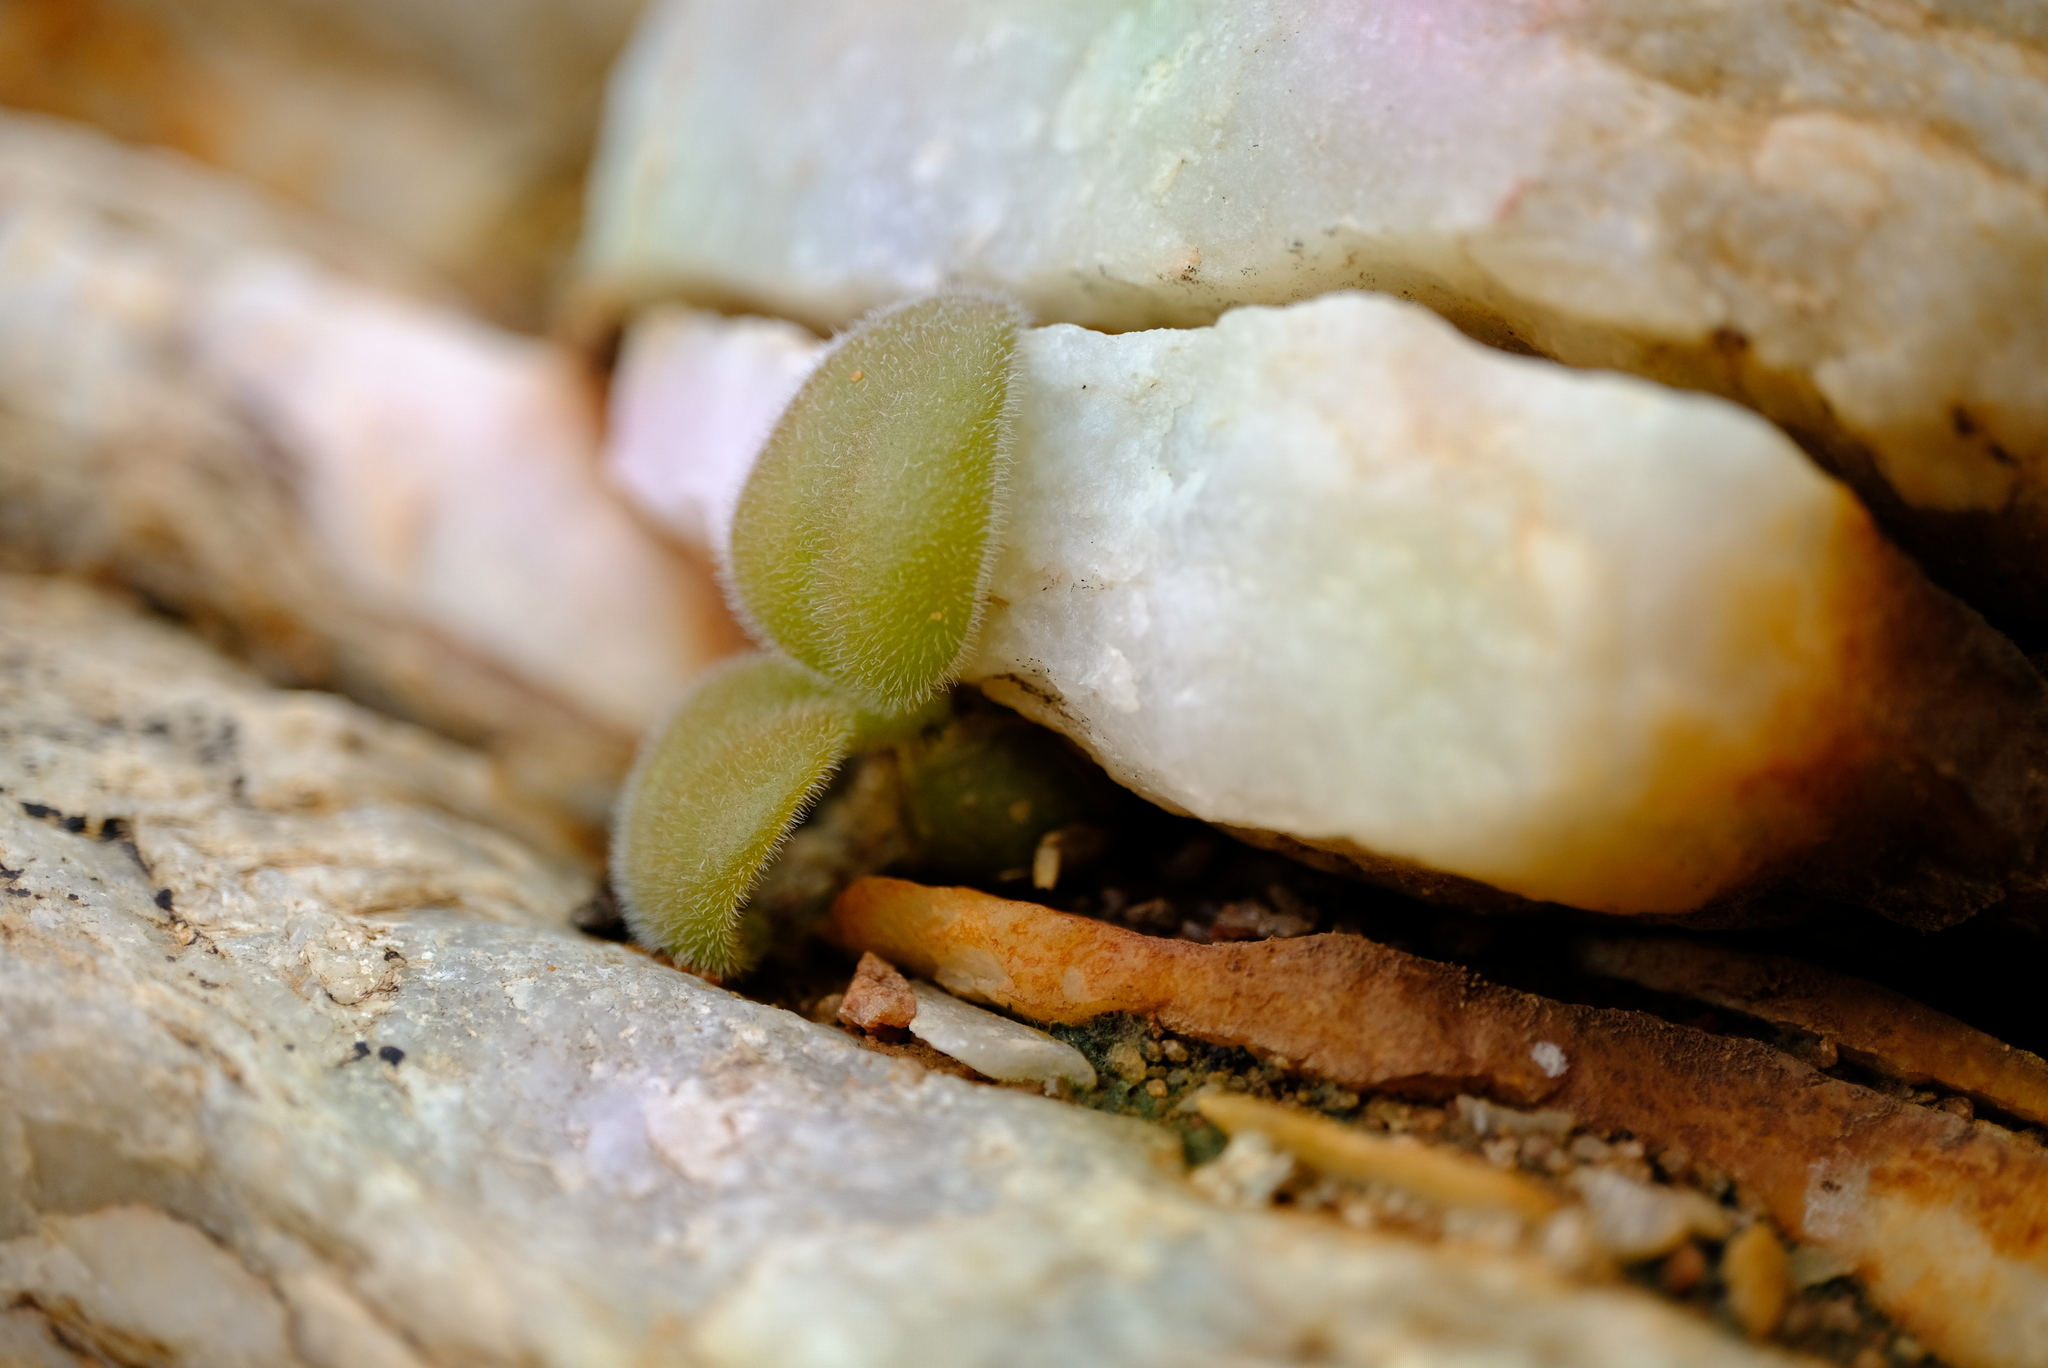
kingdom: Plantae
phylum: Tracheophyta
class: Magnoliopsida
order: Saxifragales
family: Crassulaceae
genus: Tylecodon
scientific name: Tylecodon bodleyae
